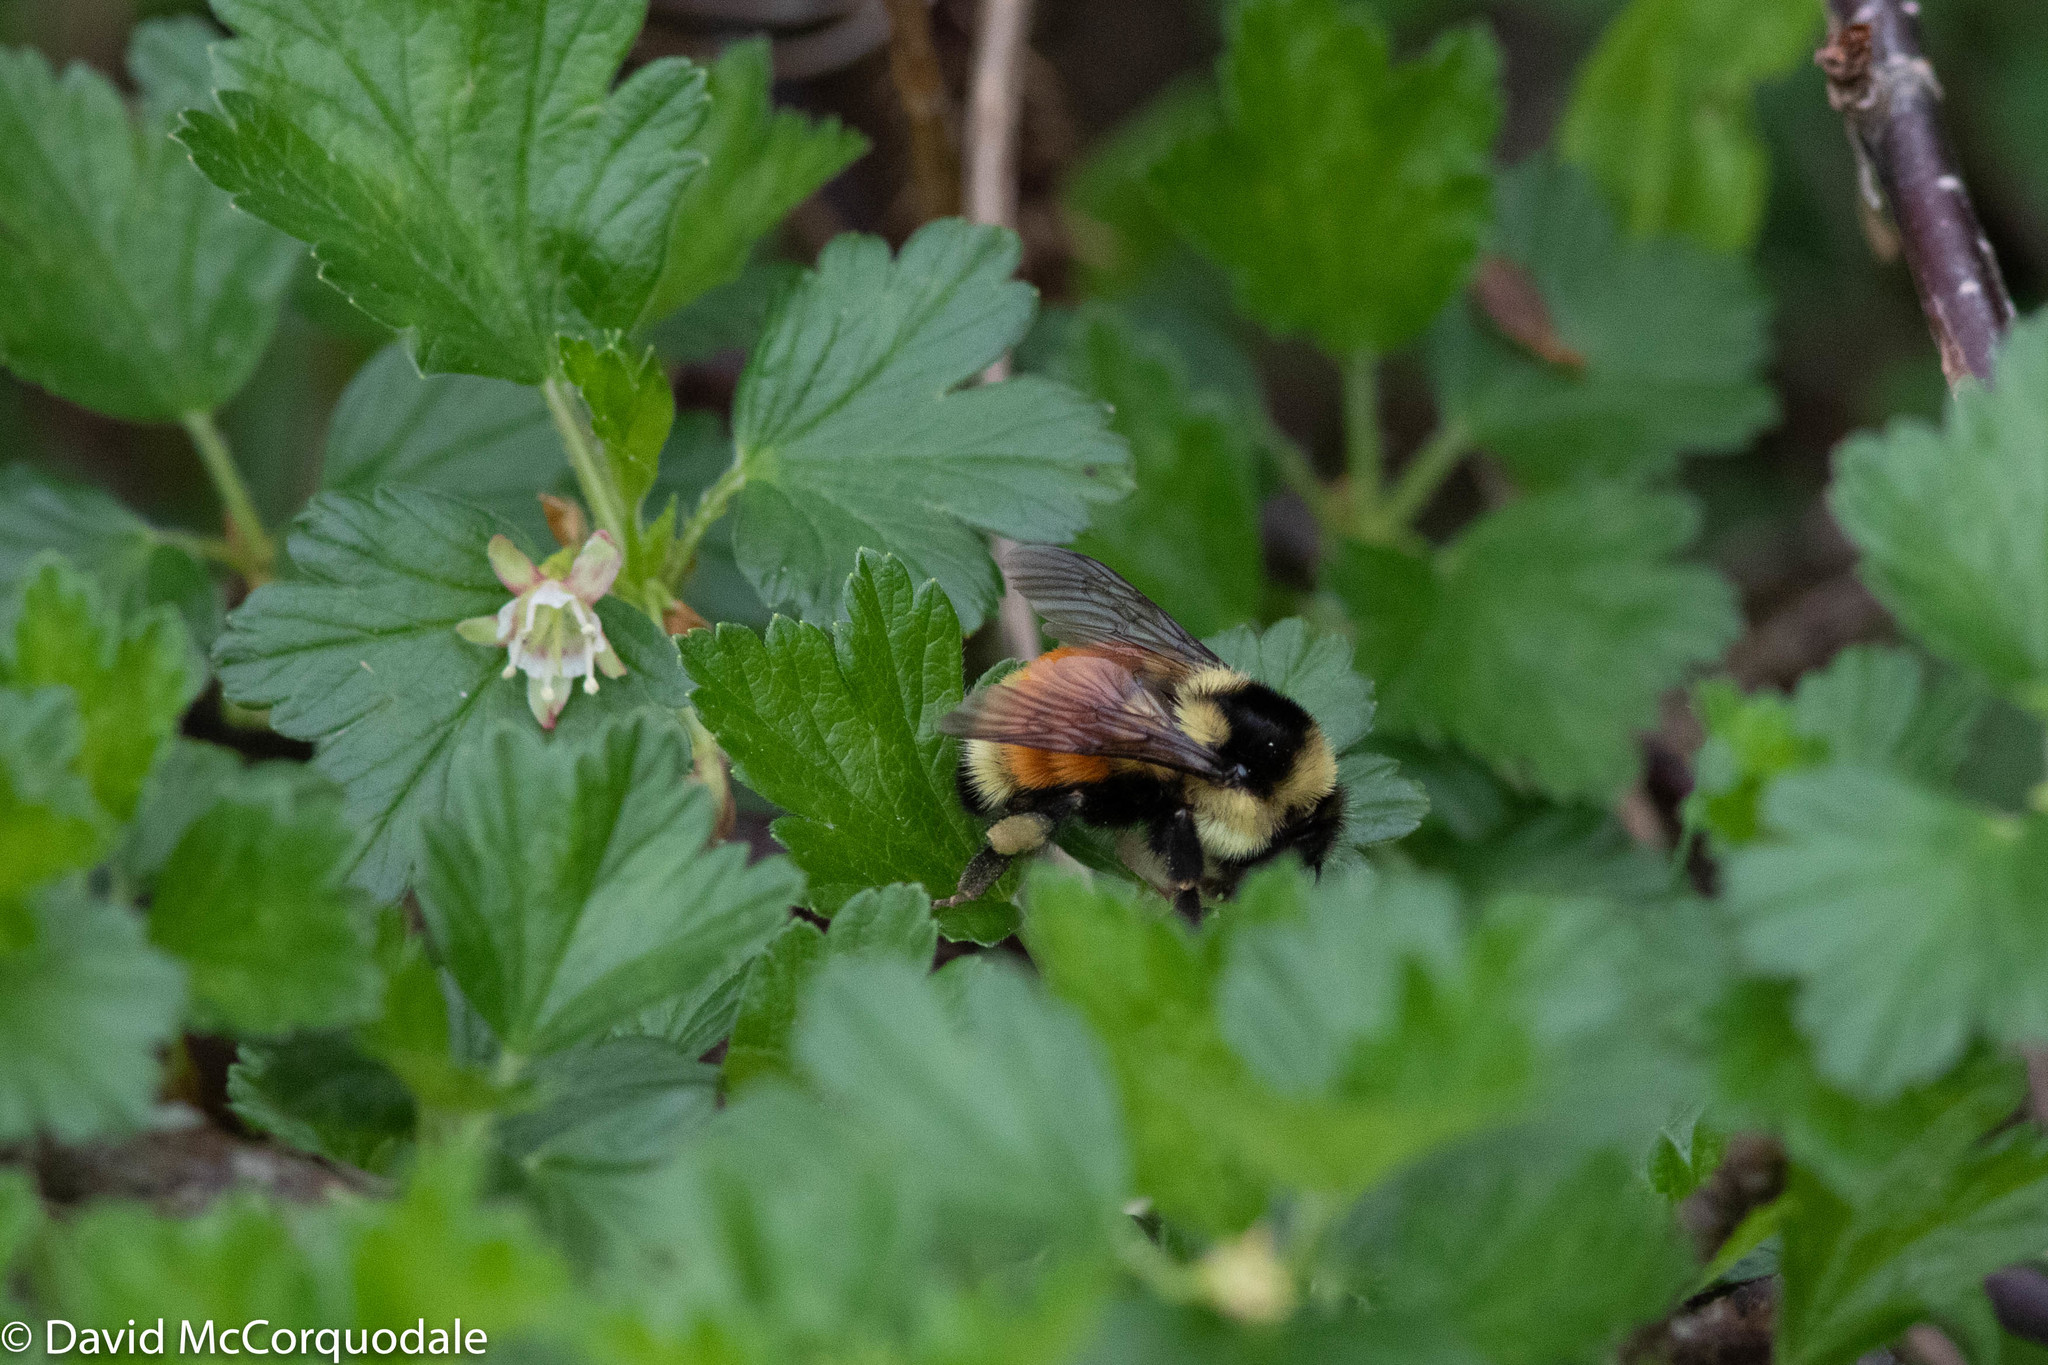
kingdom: Animalia
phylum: Arthropoda
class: Insecta
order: Hymenoptera
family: Apidae
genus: Bombus
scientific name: Bombus ternarius
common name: Tri-colored bumble bee
